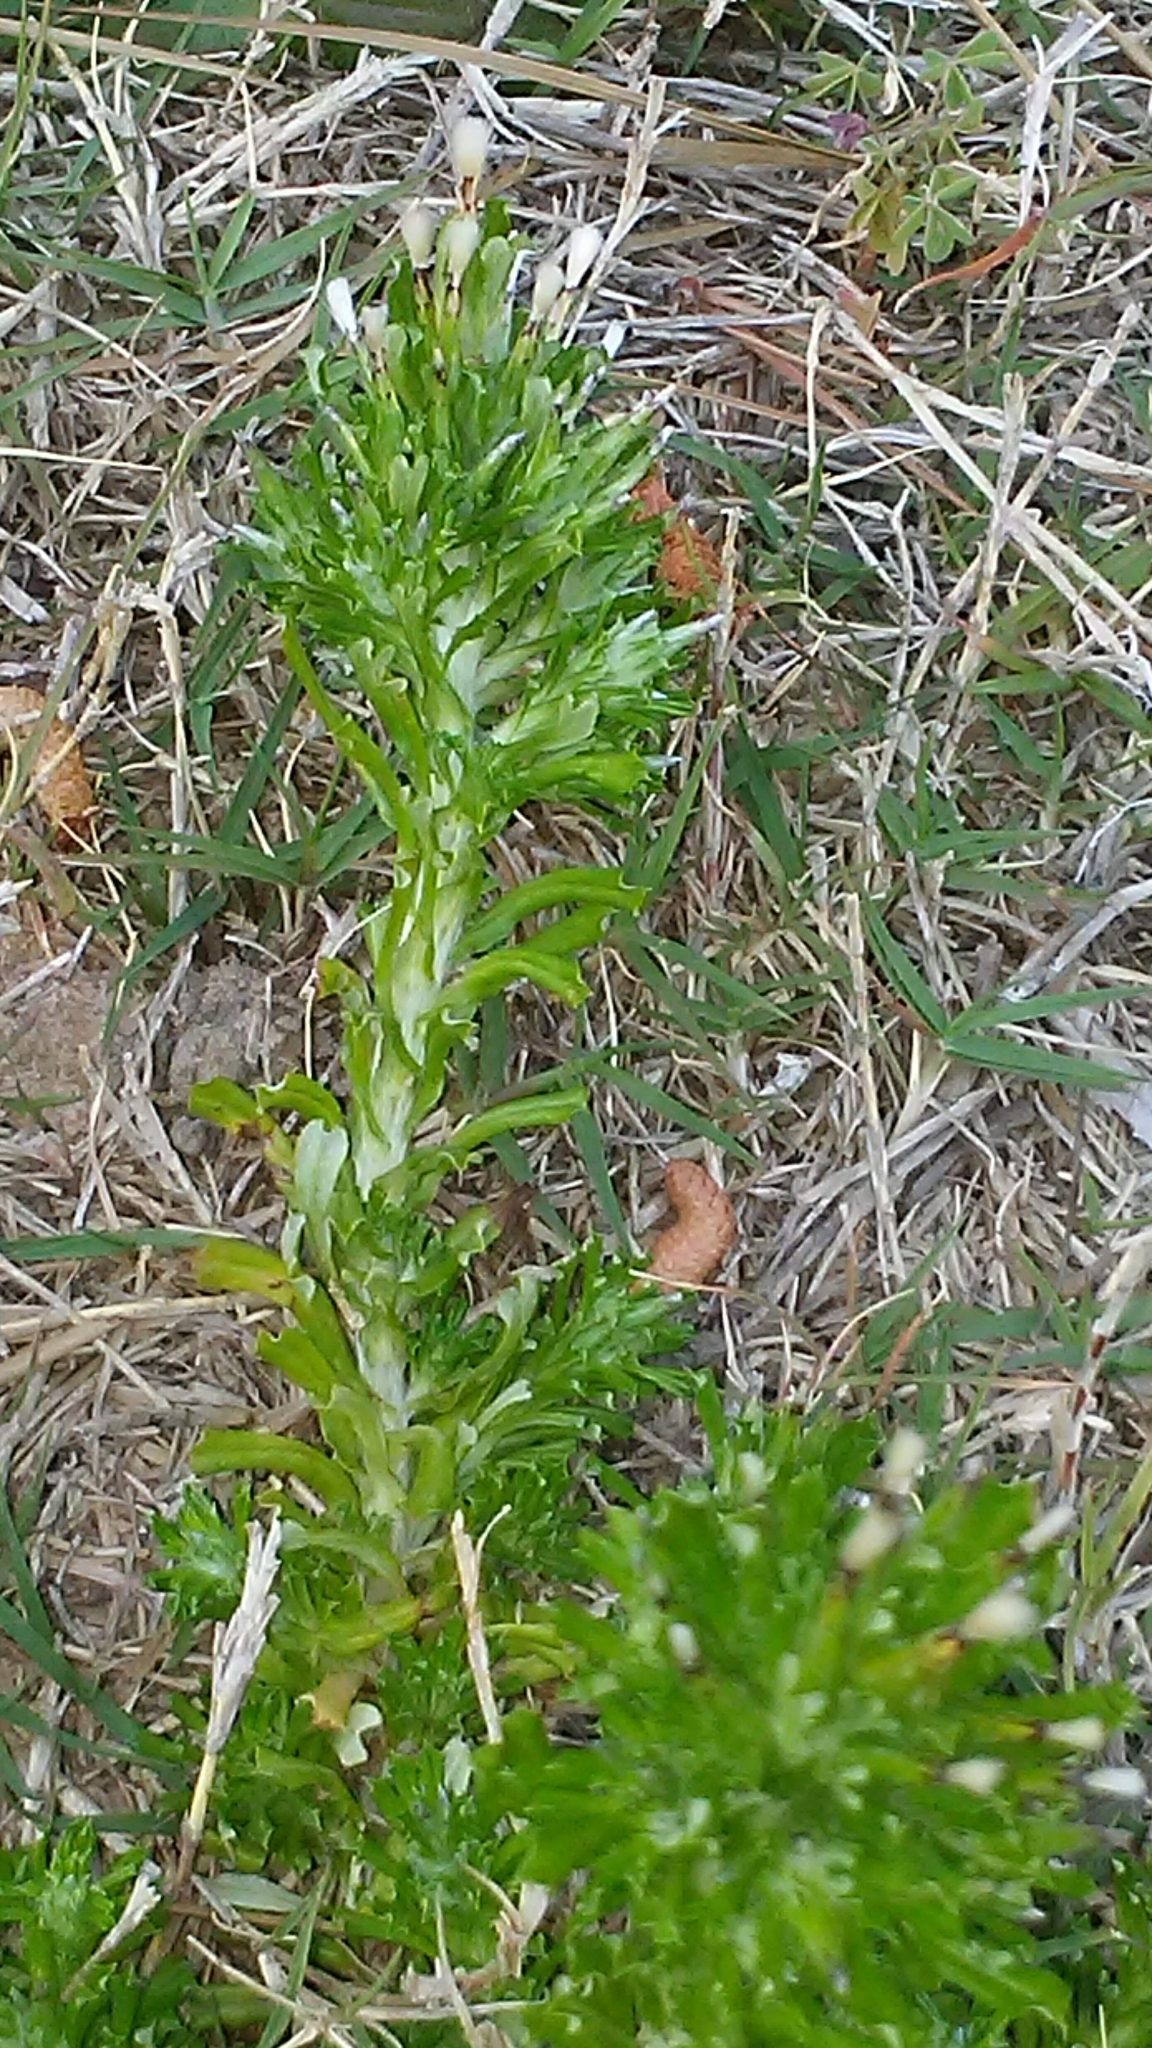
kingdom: Plantae
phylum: Tracheophyta
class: Magnoliopsida
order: Asterales
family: Asteraceae
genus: Facelis
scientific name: Facelis retusa
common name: Annual trampweed
